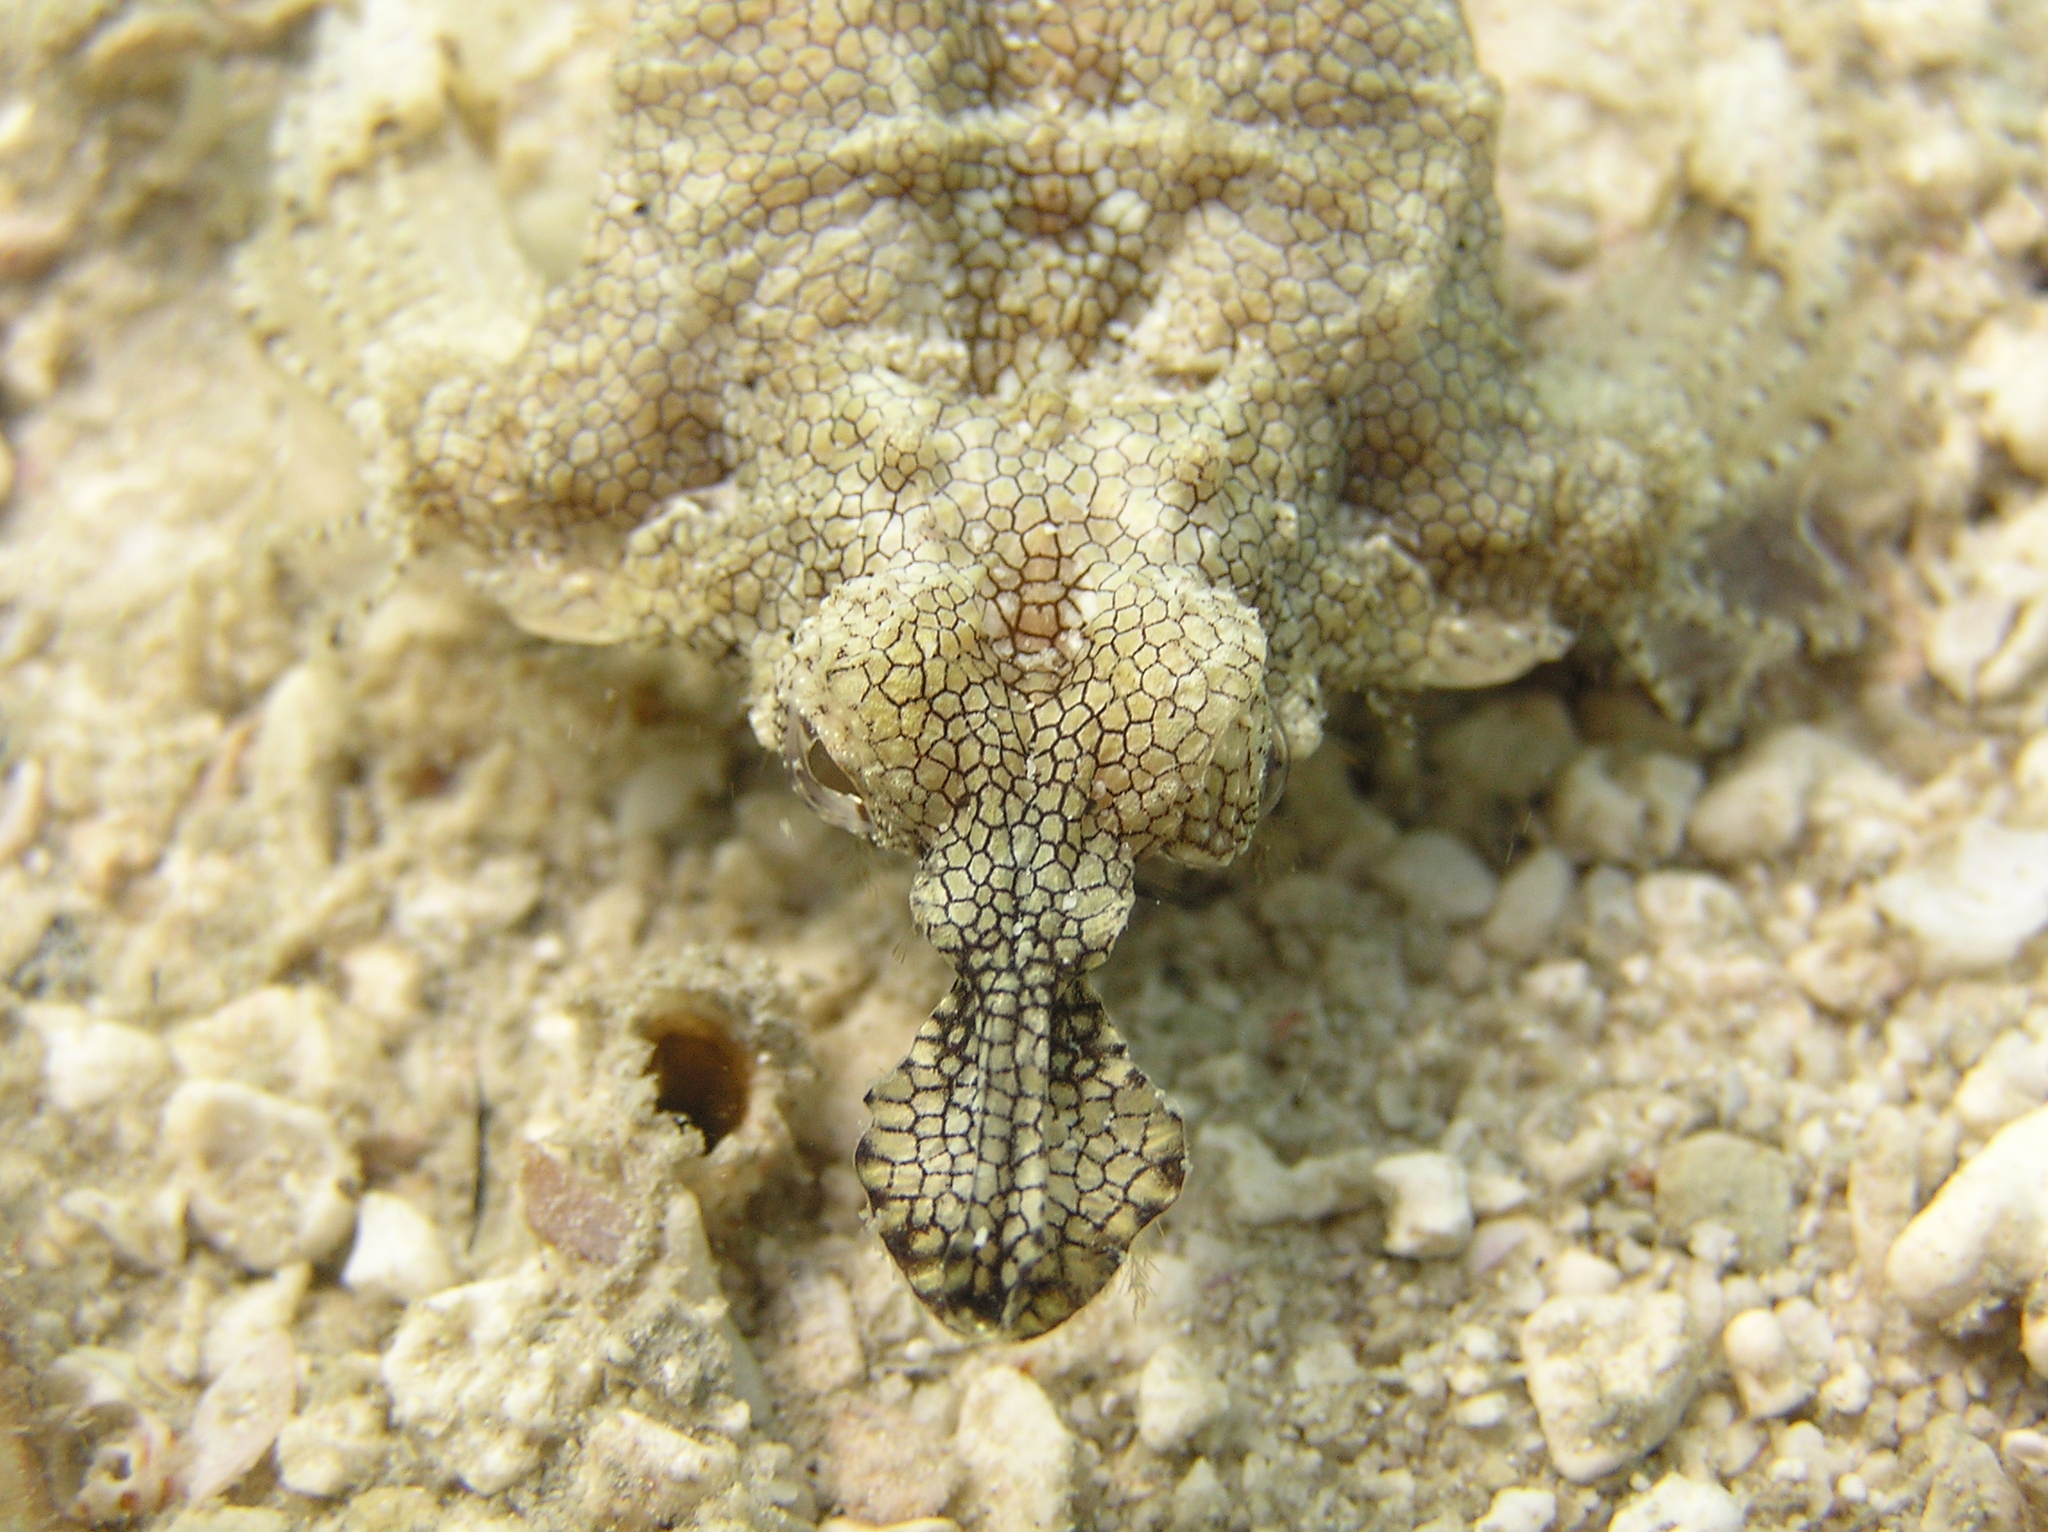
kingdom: Animalia
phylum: Chordata
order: Gasterosteiformes
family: Pegasidae
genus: Eurypegasus
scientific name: Eurypegasus draconis
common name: Short dragonfish
